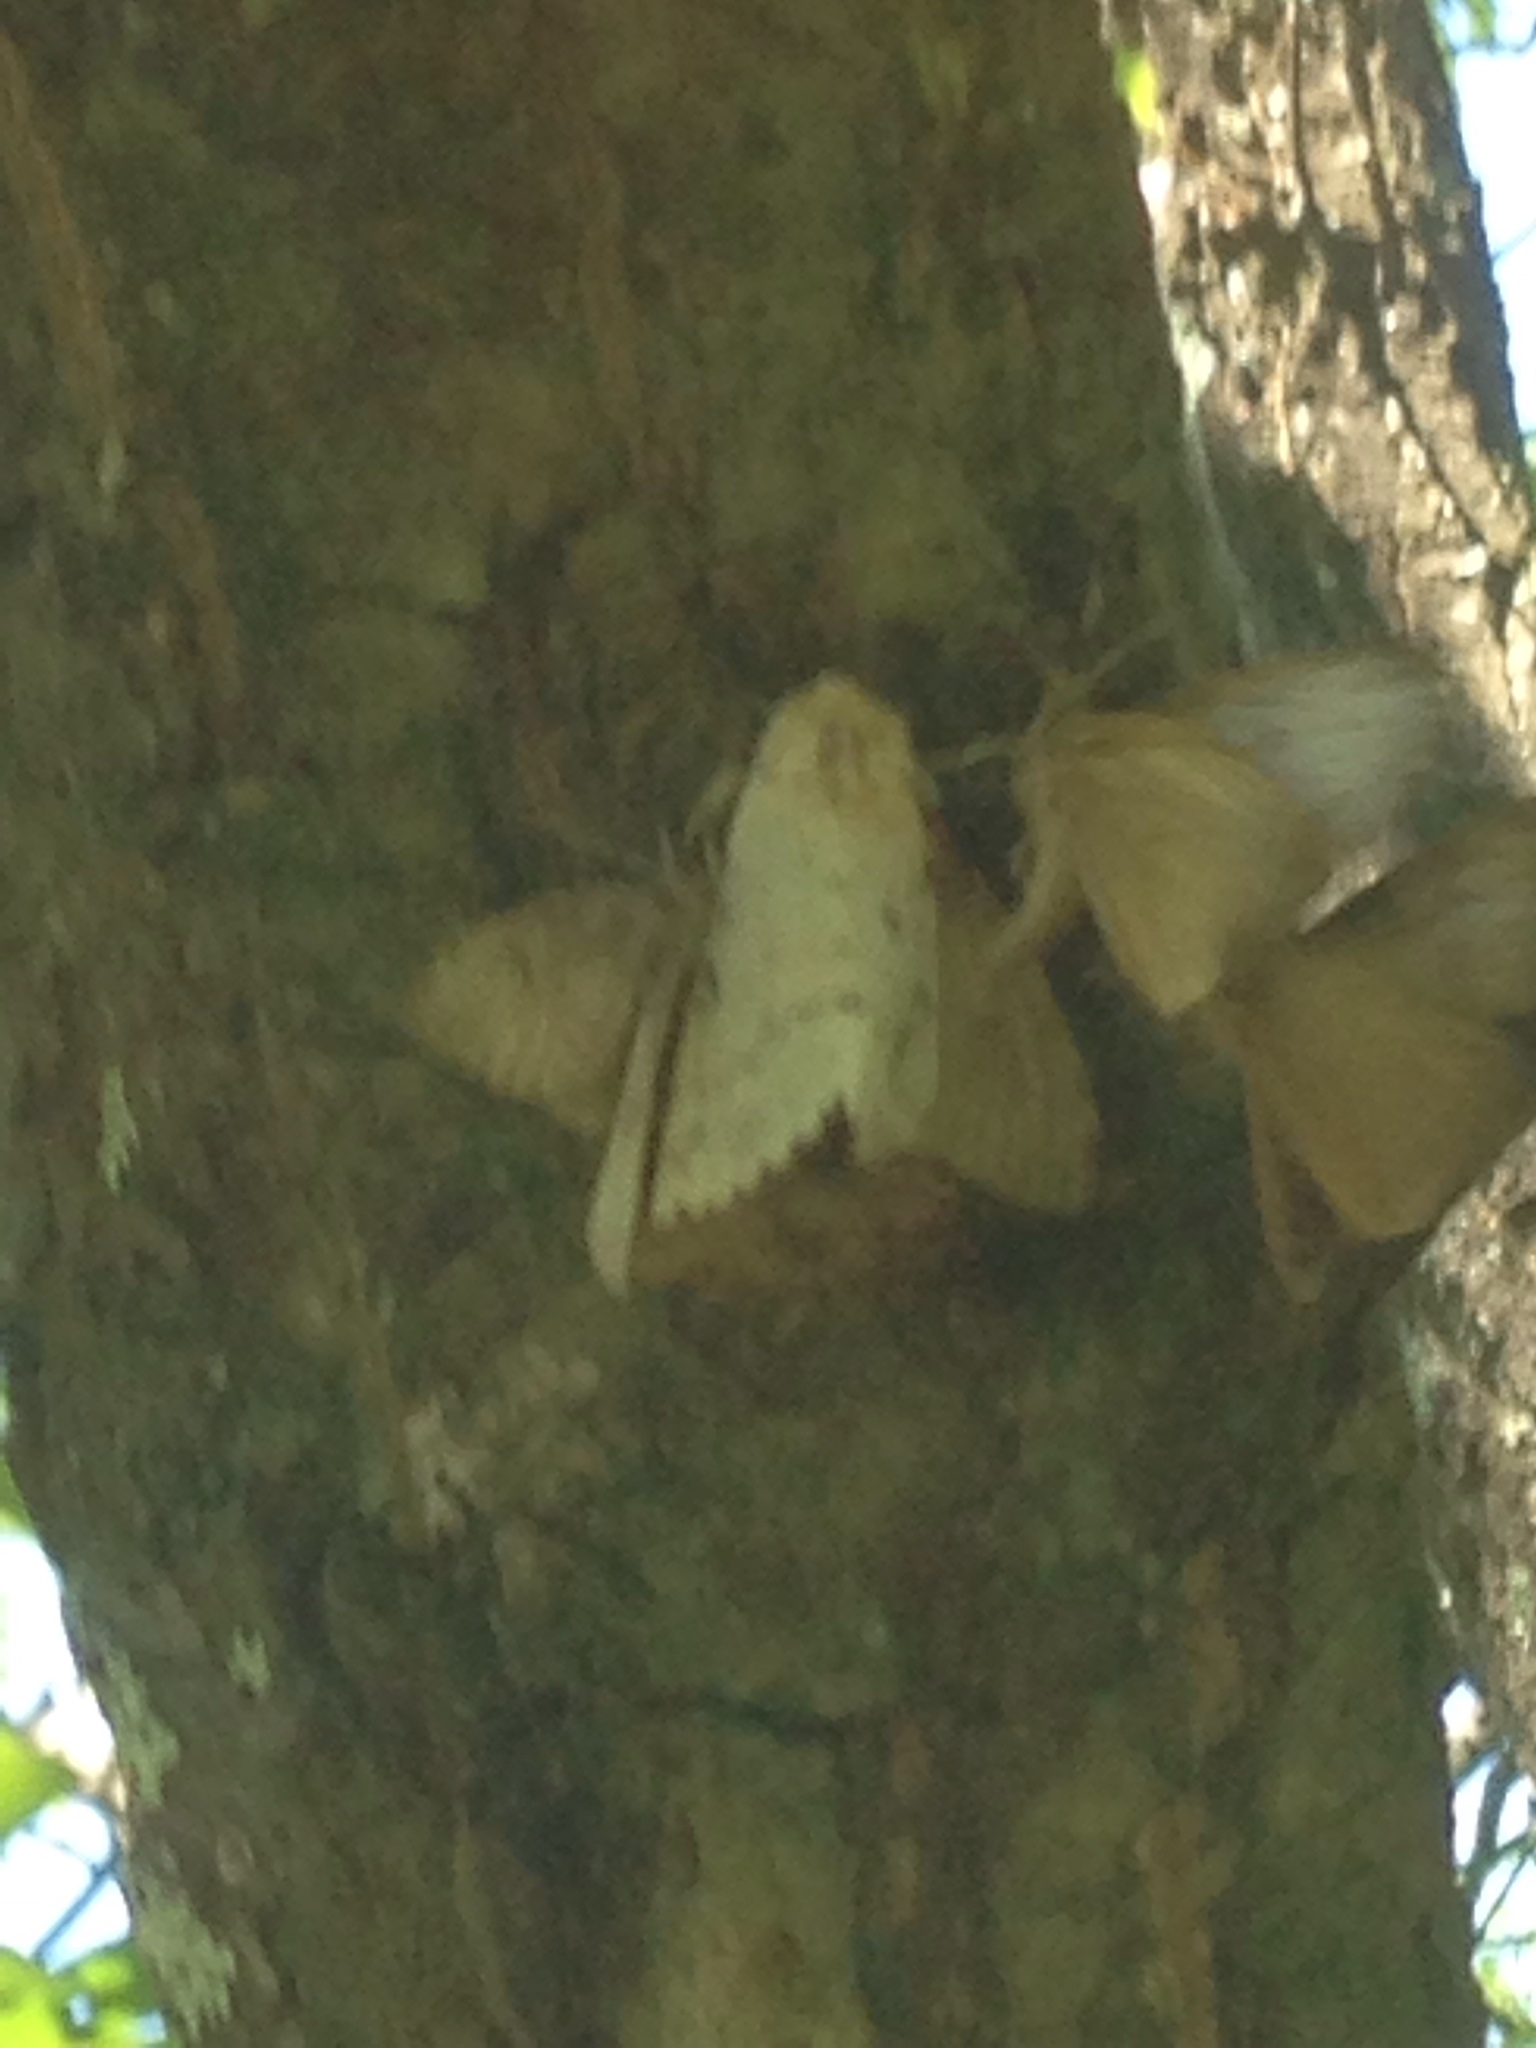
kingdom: Animalia
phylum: Arthropoda
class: Insecta
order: Lepidoptera
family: Erebidae
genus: Lymantria
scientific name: Lymantria dispar
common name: Gypsy moth
